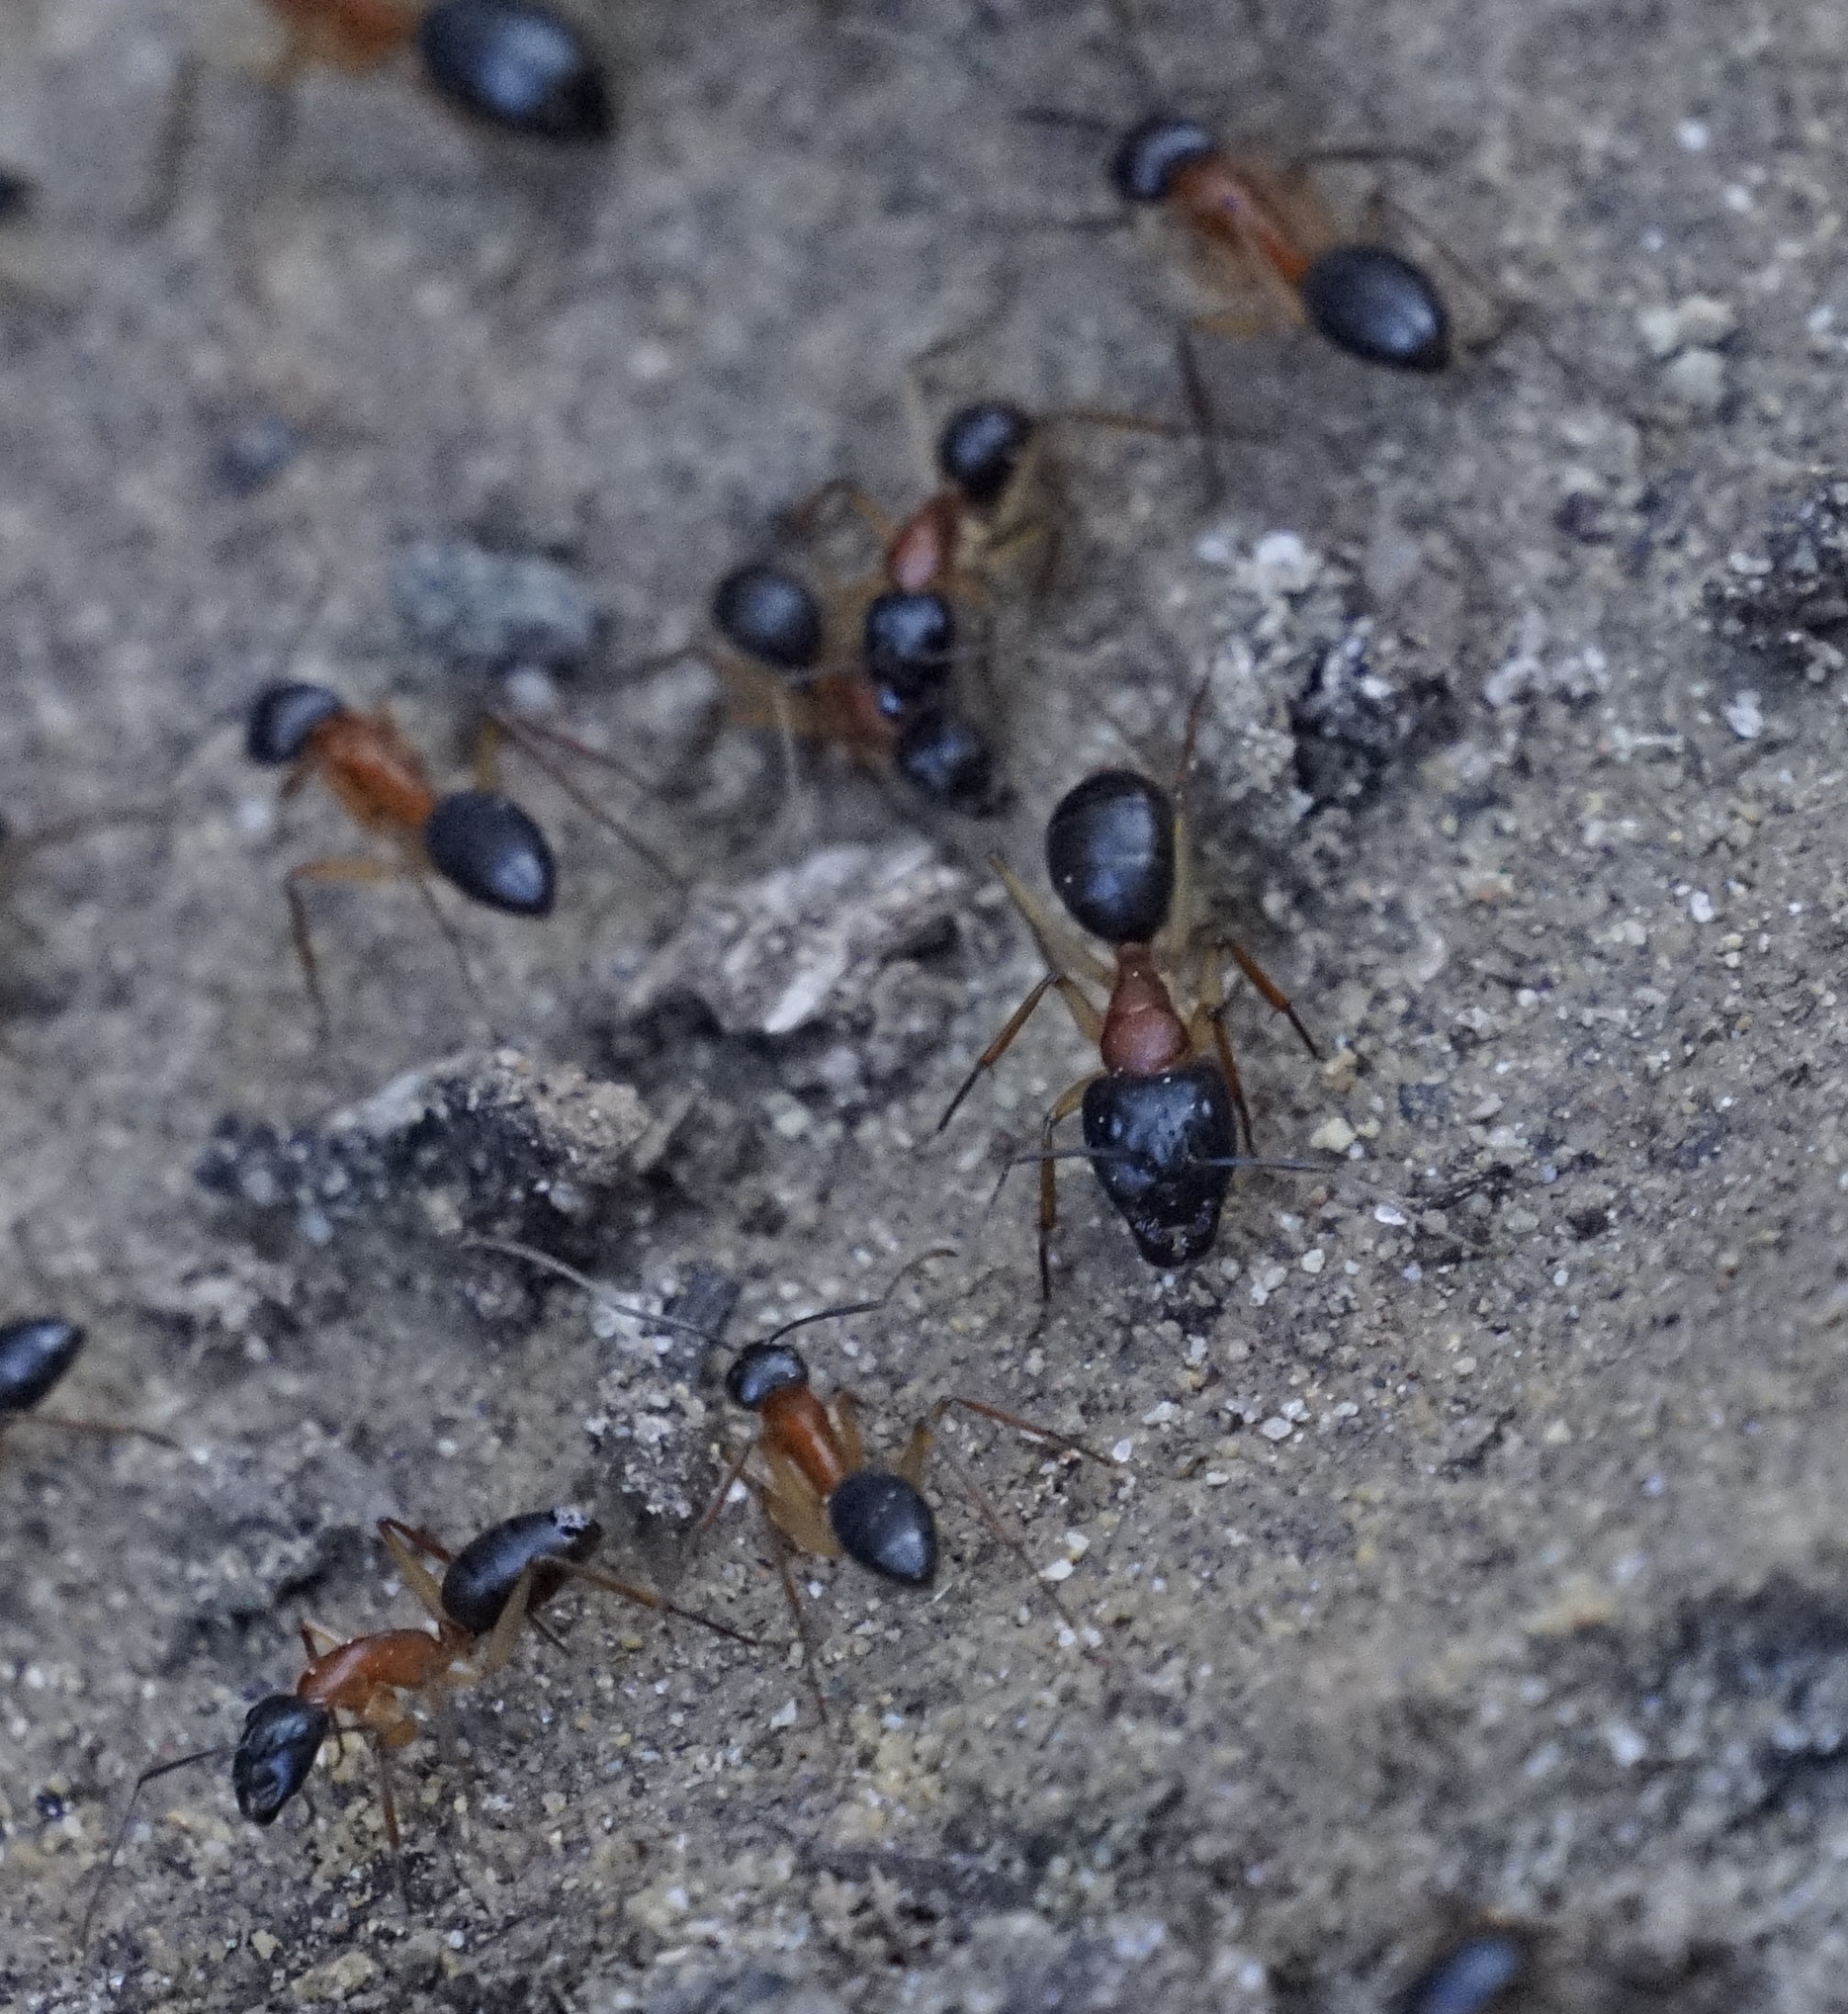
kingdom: Animalia
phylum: Arthropoda
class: Insecta
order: Hymenoptera
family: Formicidae
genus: Camponotus
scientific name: Camponotus nigriceps
